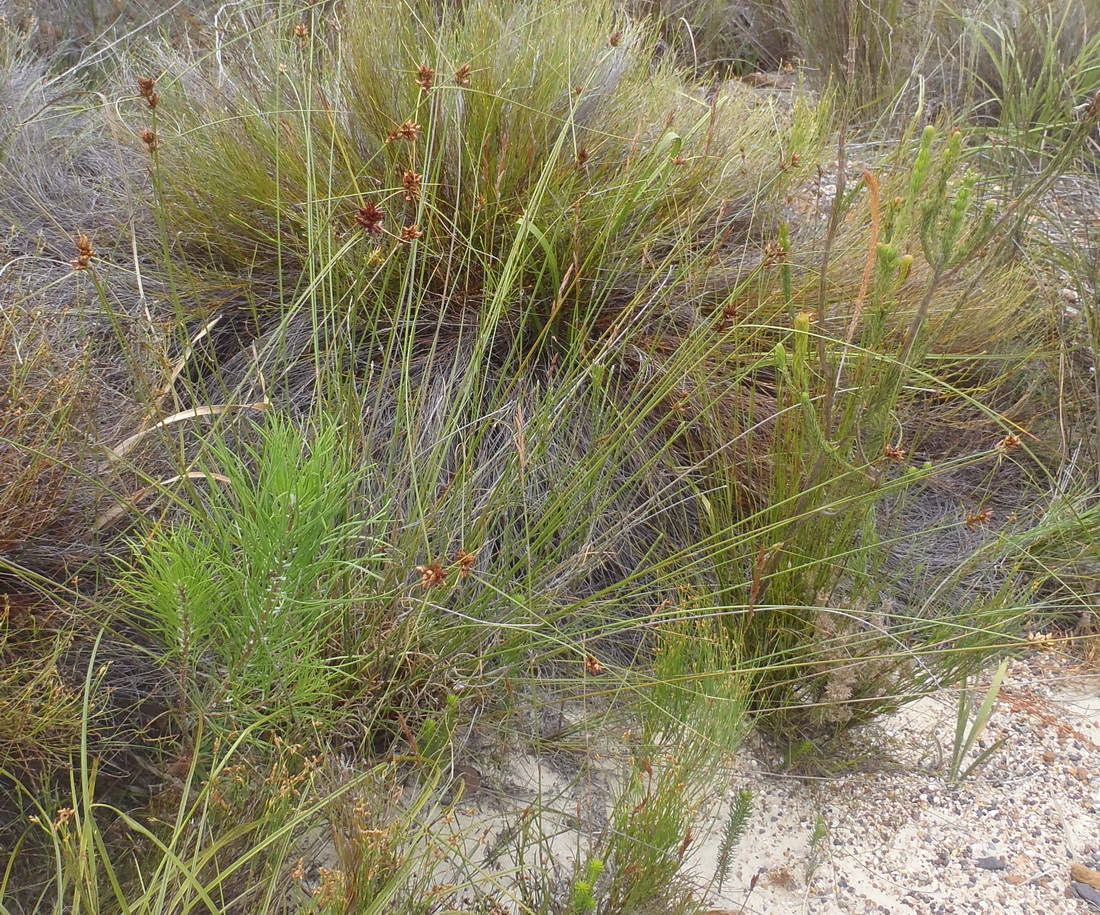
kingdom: Plantae
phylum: Tracheophyta
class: Liliopsida
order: Poales
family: Cyperaceae
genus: Schoenus
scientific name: Schoenus compar
